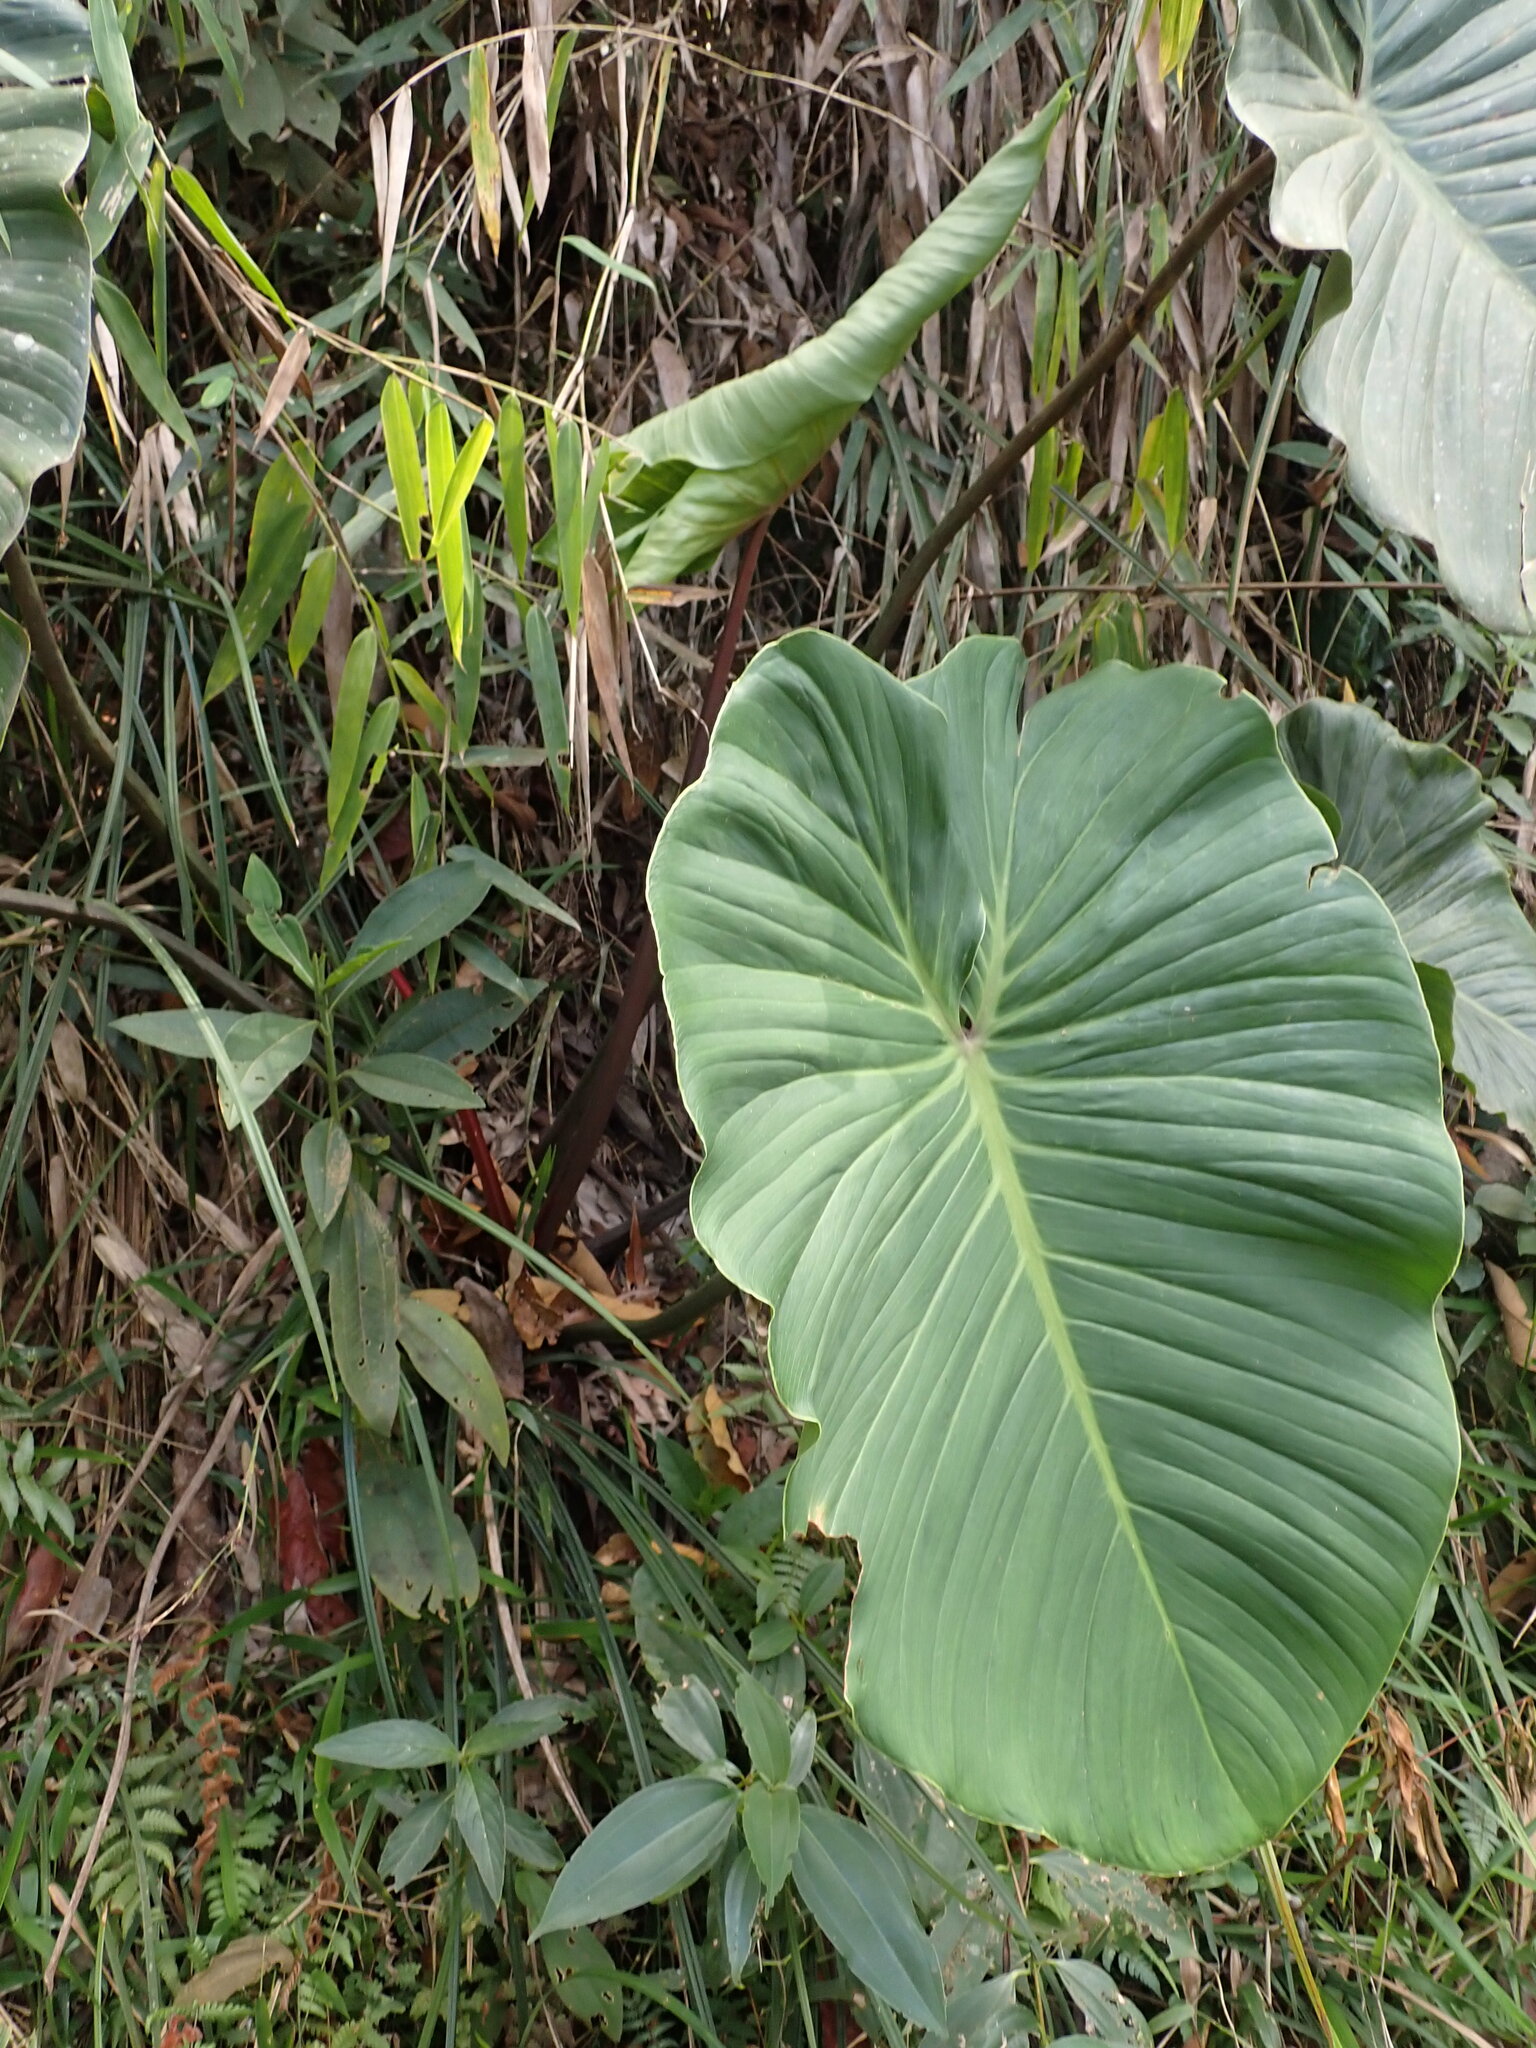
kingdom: Plantae
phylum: Tracheophyta
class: Liliopsida
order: Alismatales
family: Araceae
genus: Philodendron
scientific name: Philodendron rhizomatosum
